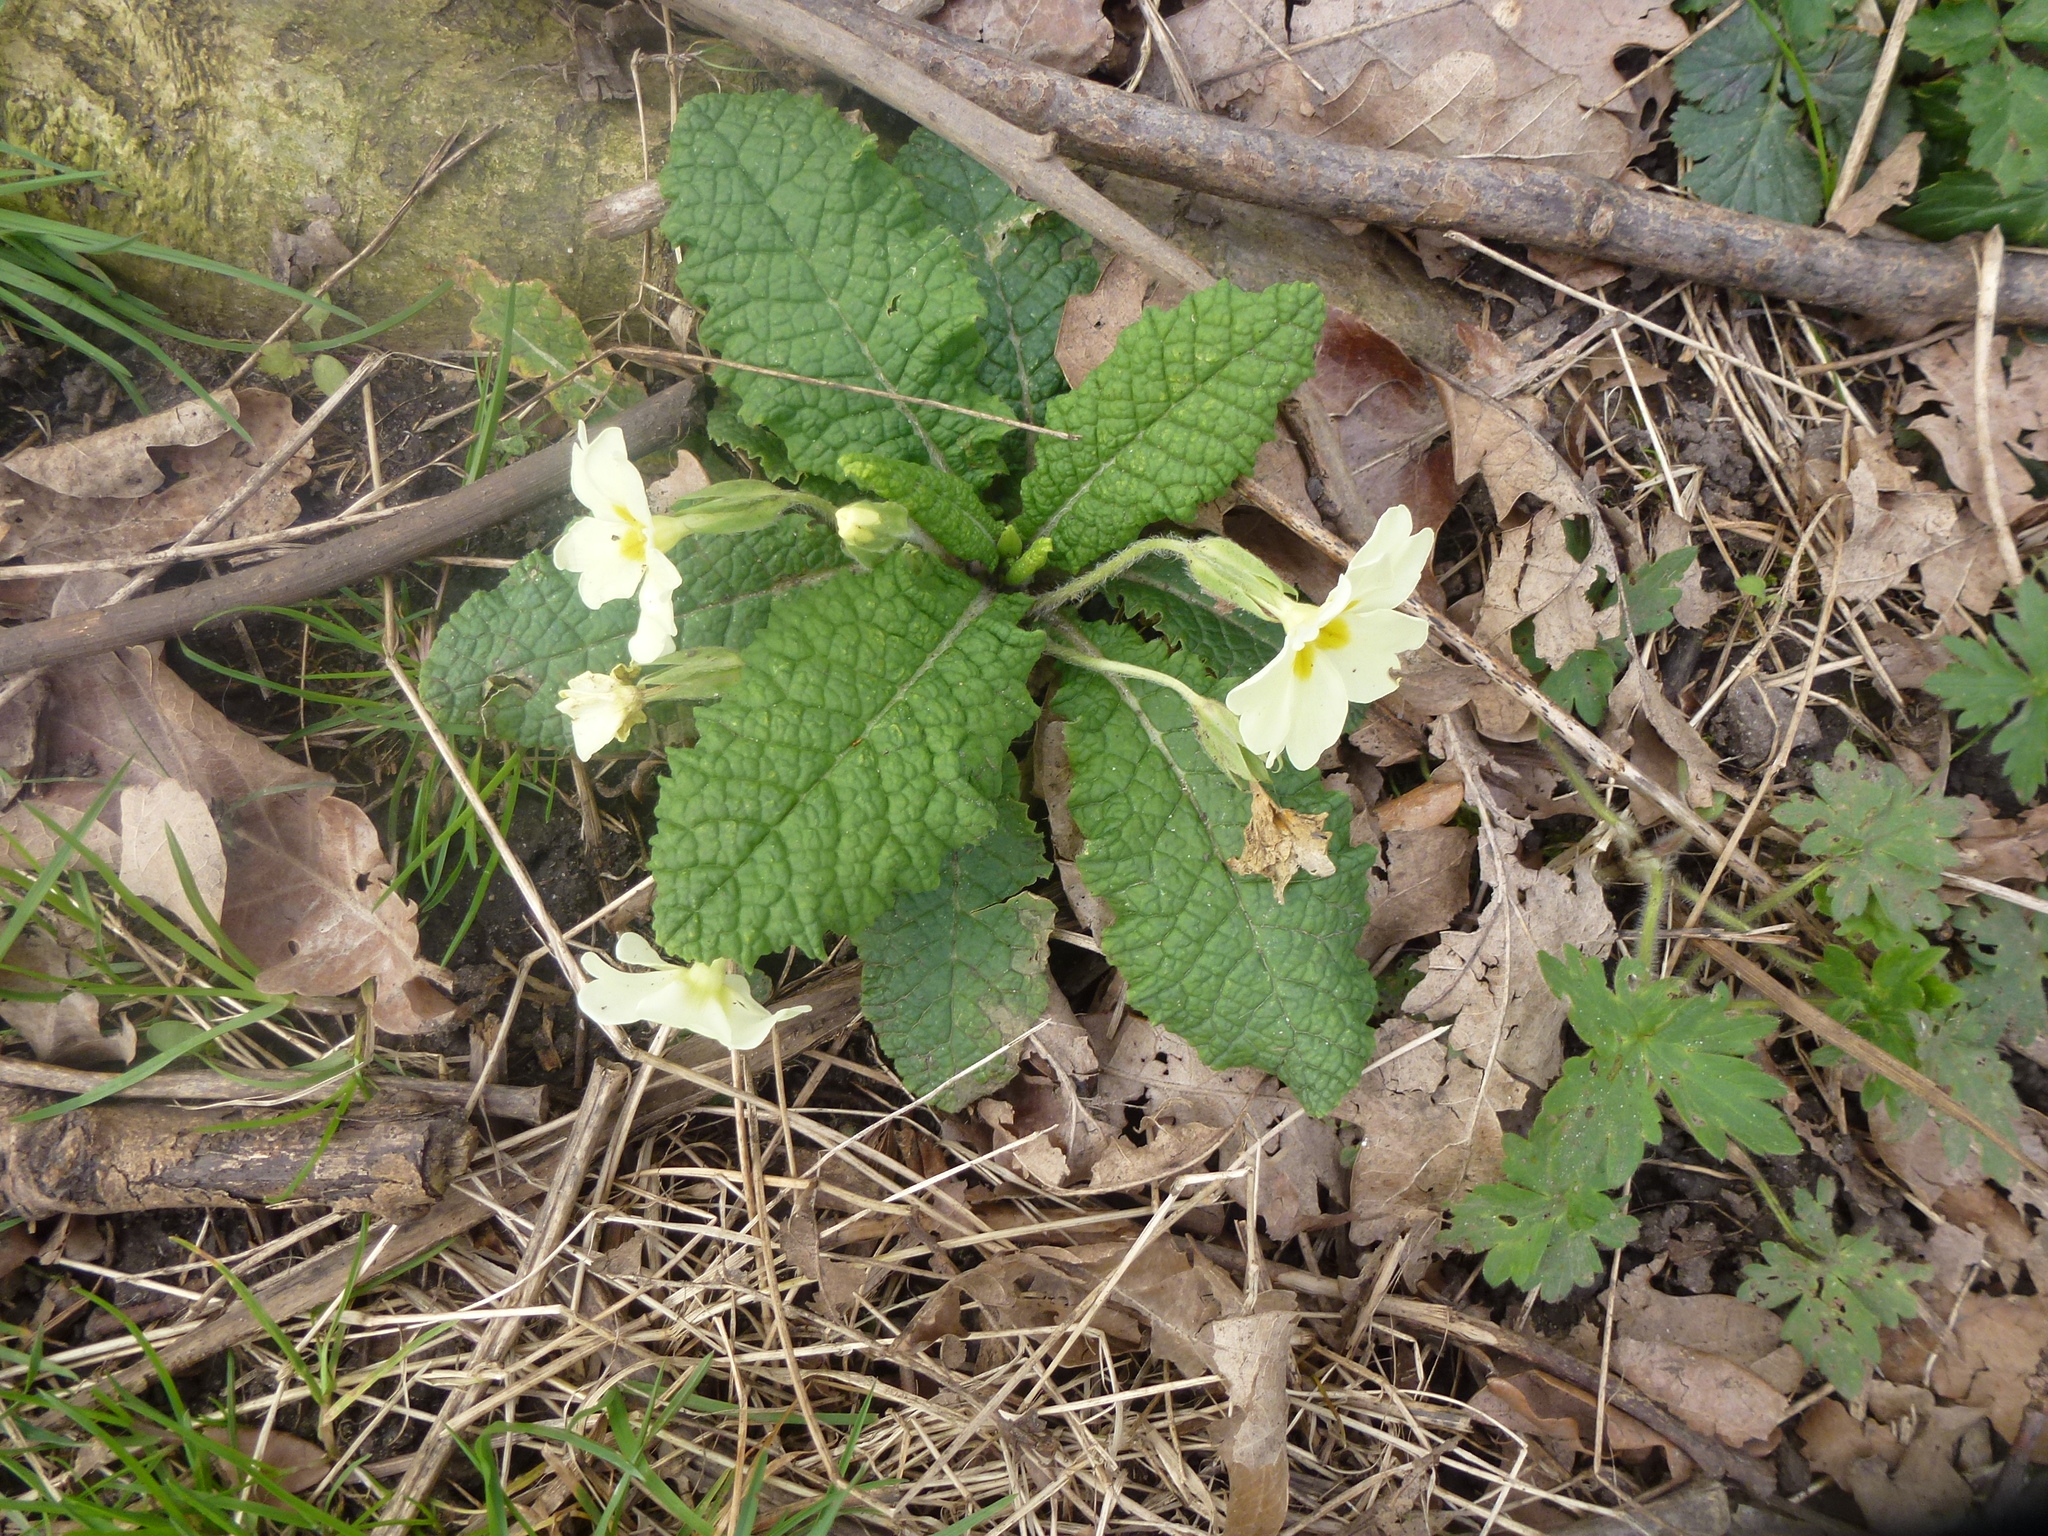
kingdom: Plantae
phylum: Tracheophyta
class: Magnoliopsida
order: Ericales
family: Primulaceae
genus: Primula
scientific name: Primula vulgaris
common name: Primrose
